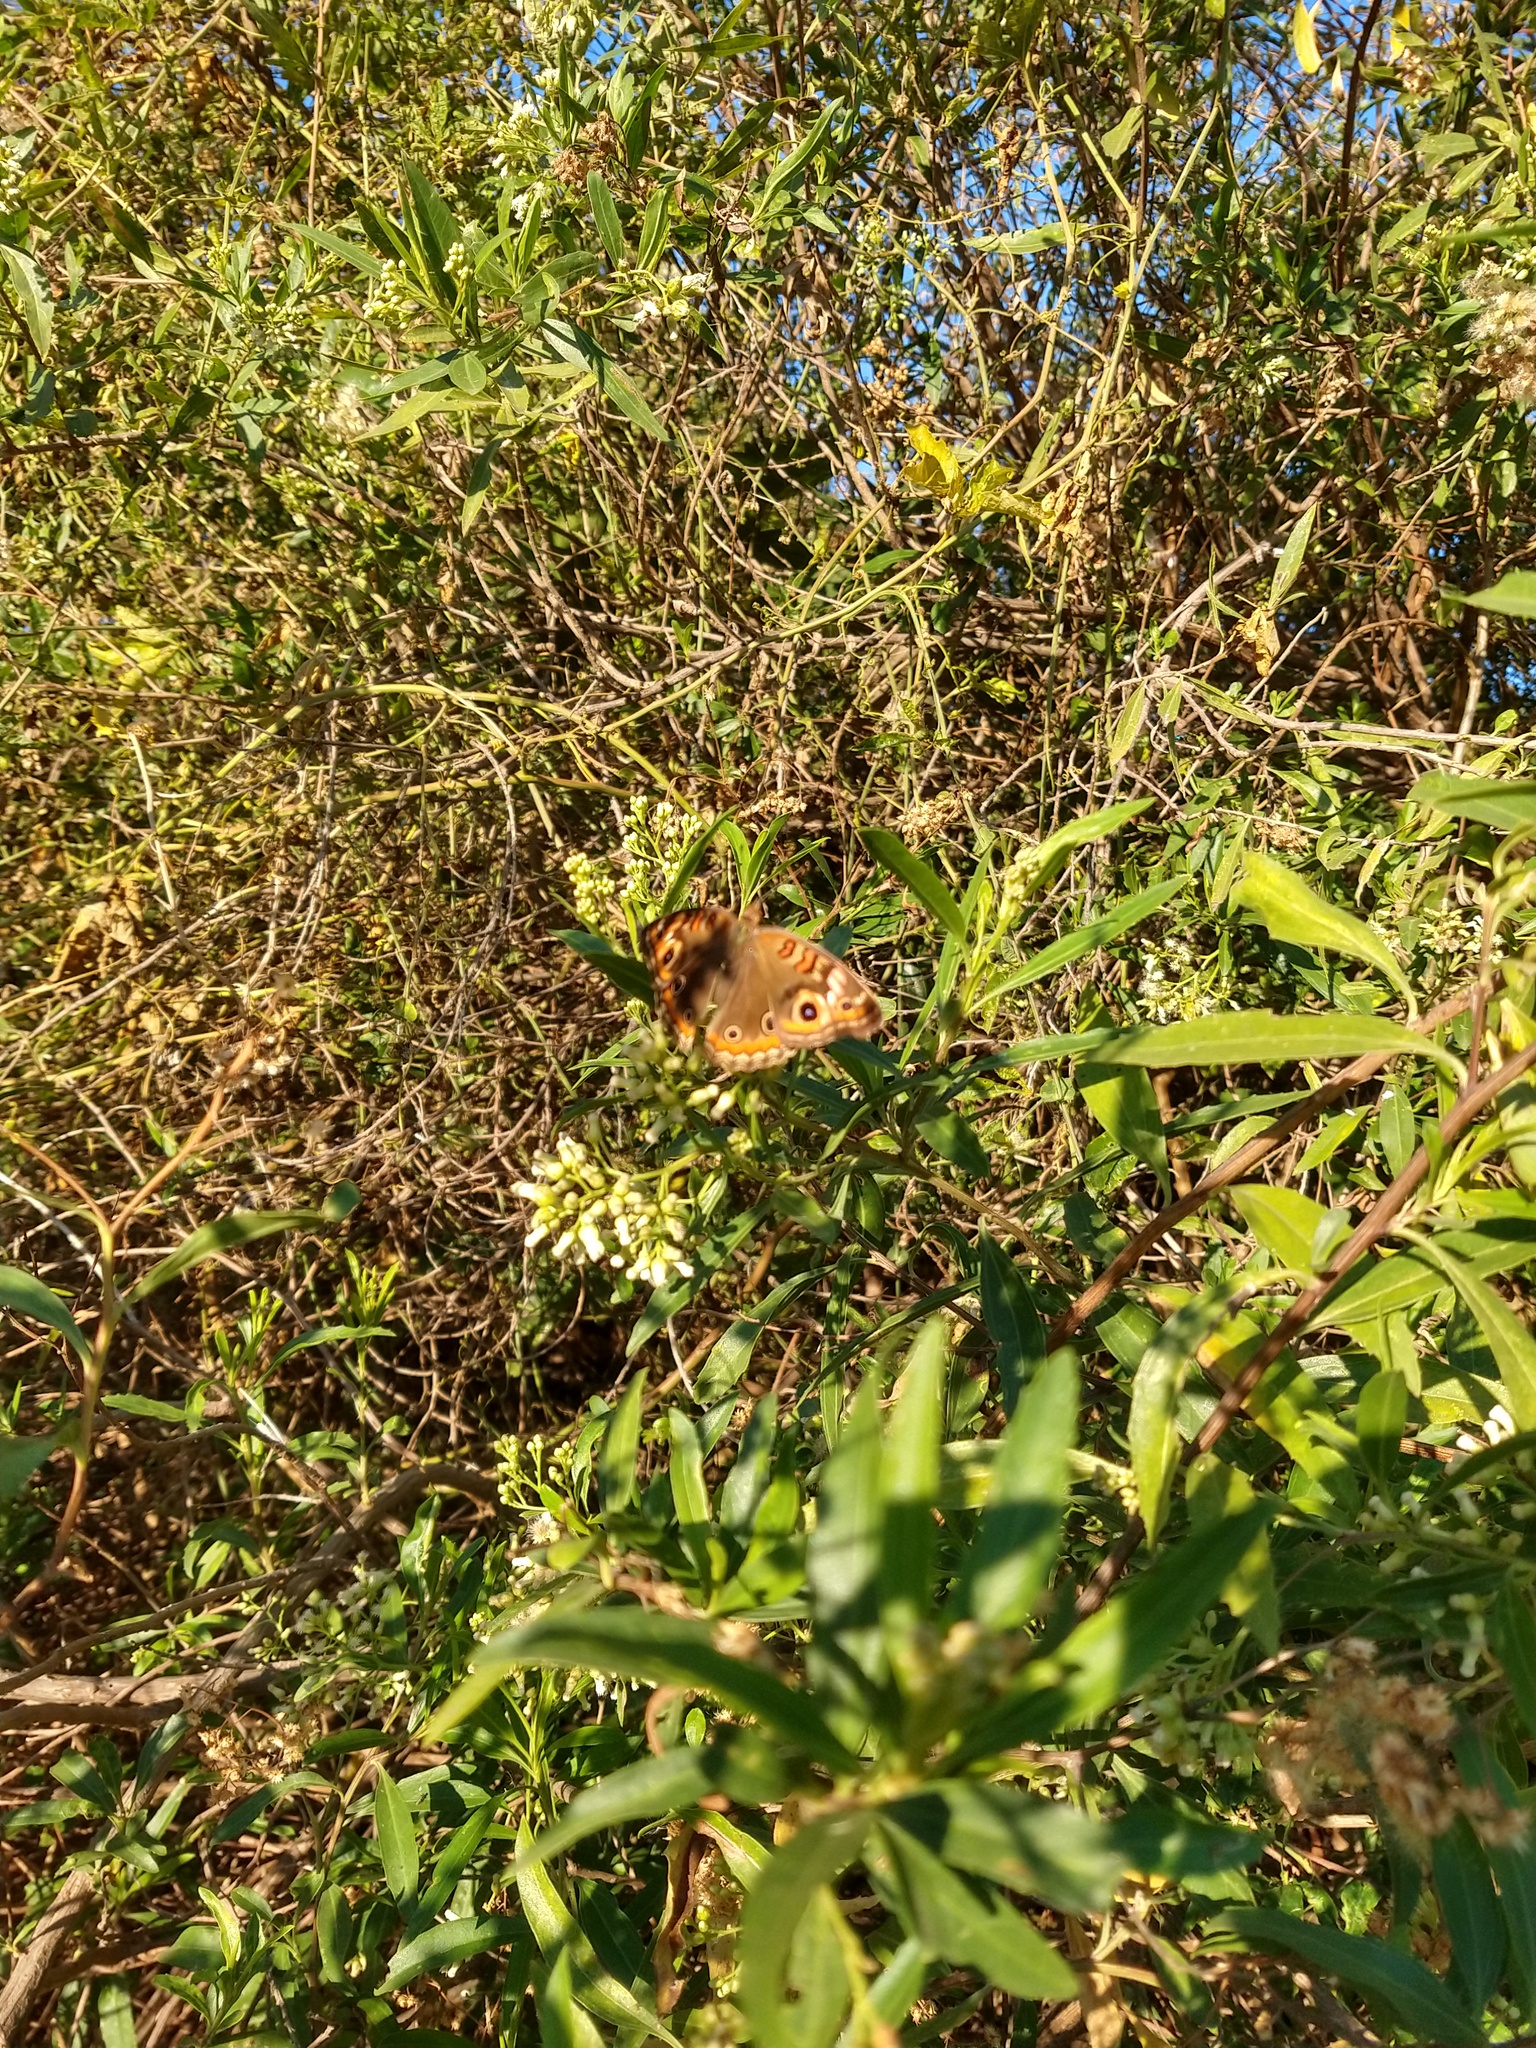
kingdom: Animalia
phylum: Arthropoda
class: Insecta
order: Lepidoptera
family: Nymphalidae
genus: Junonia
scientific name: Junonia lavinia
